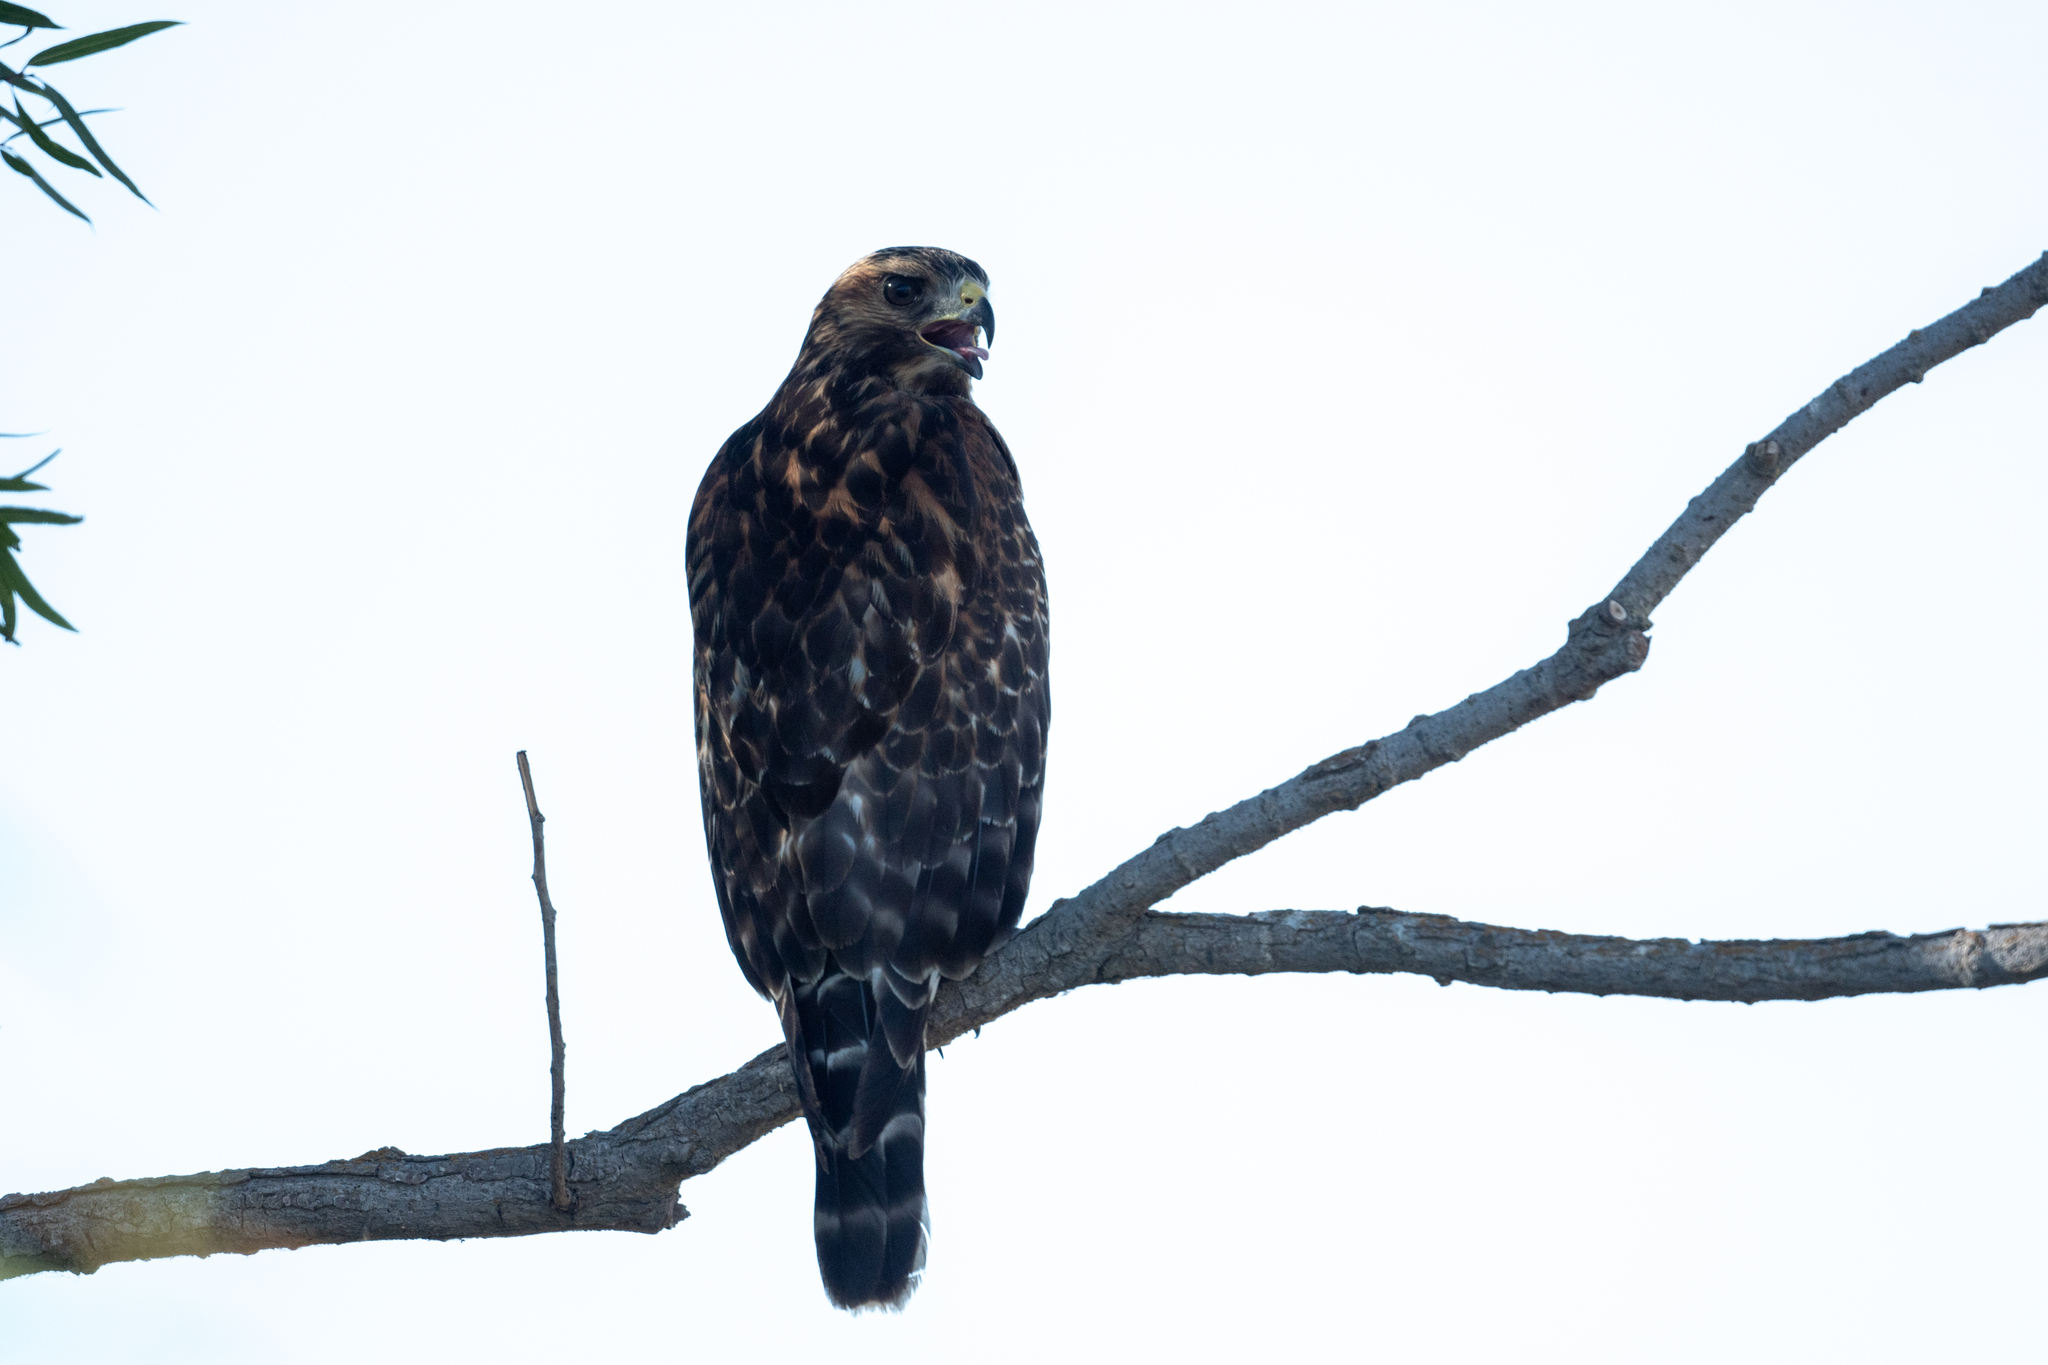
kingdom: Animalia
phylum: Chordata
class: Aves
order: Accipitriformes
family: Accipitridae
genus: Buteo
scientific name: Buteo lineatus
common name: Red-shouldered hawk
